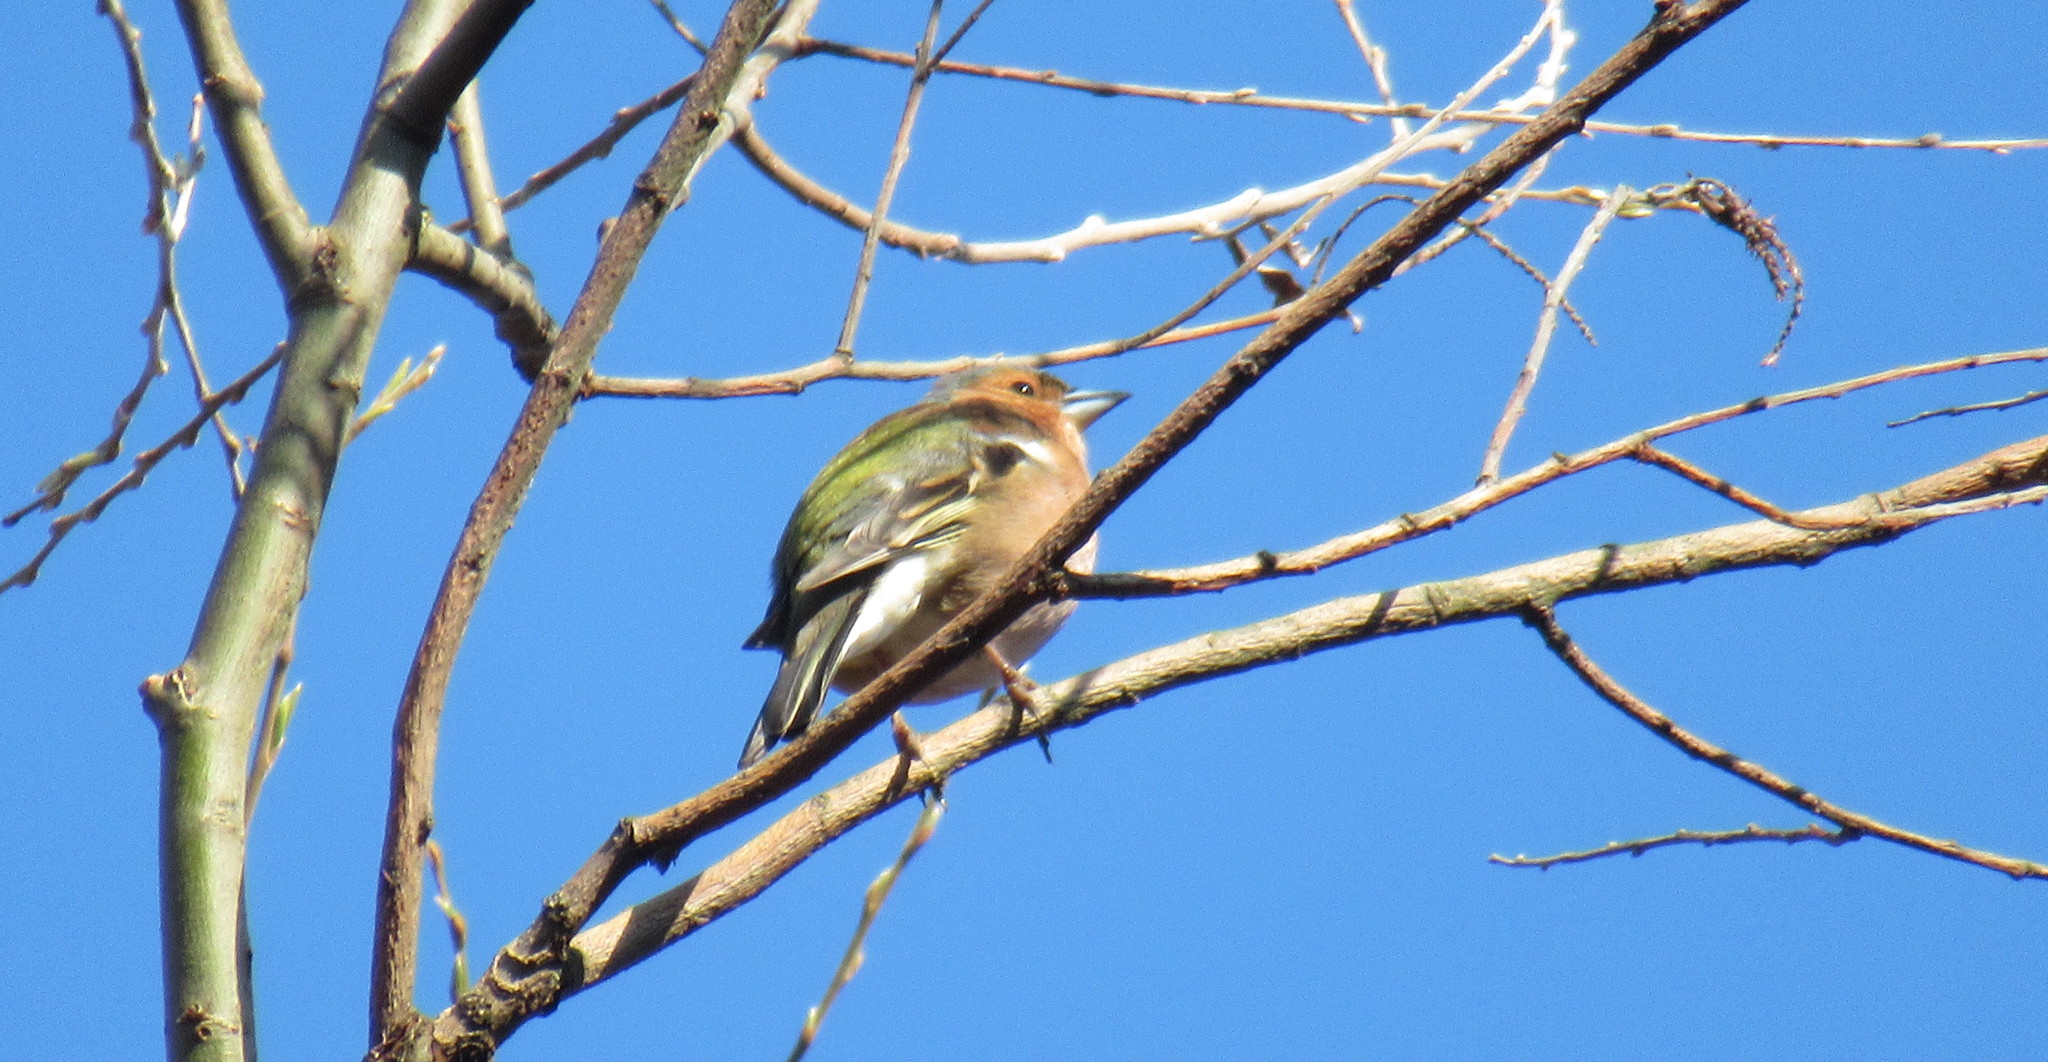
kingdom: Animalia
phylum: Chordata
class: Aves
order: Passeriformes
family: Fringillidae
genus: Fringilla
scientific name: Fringilla coelebs
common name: Common chaffinch
